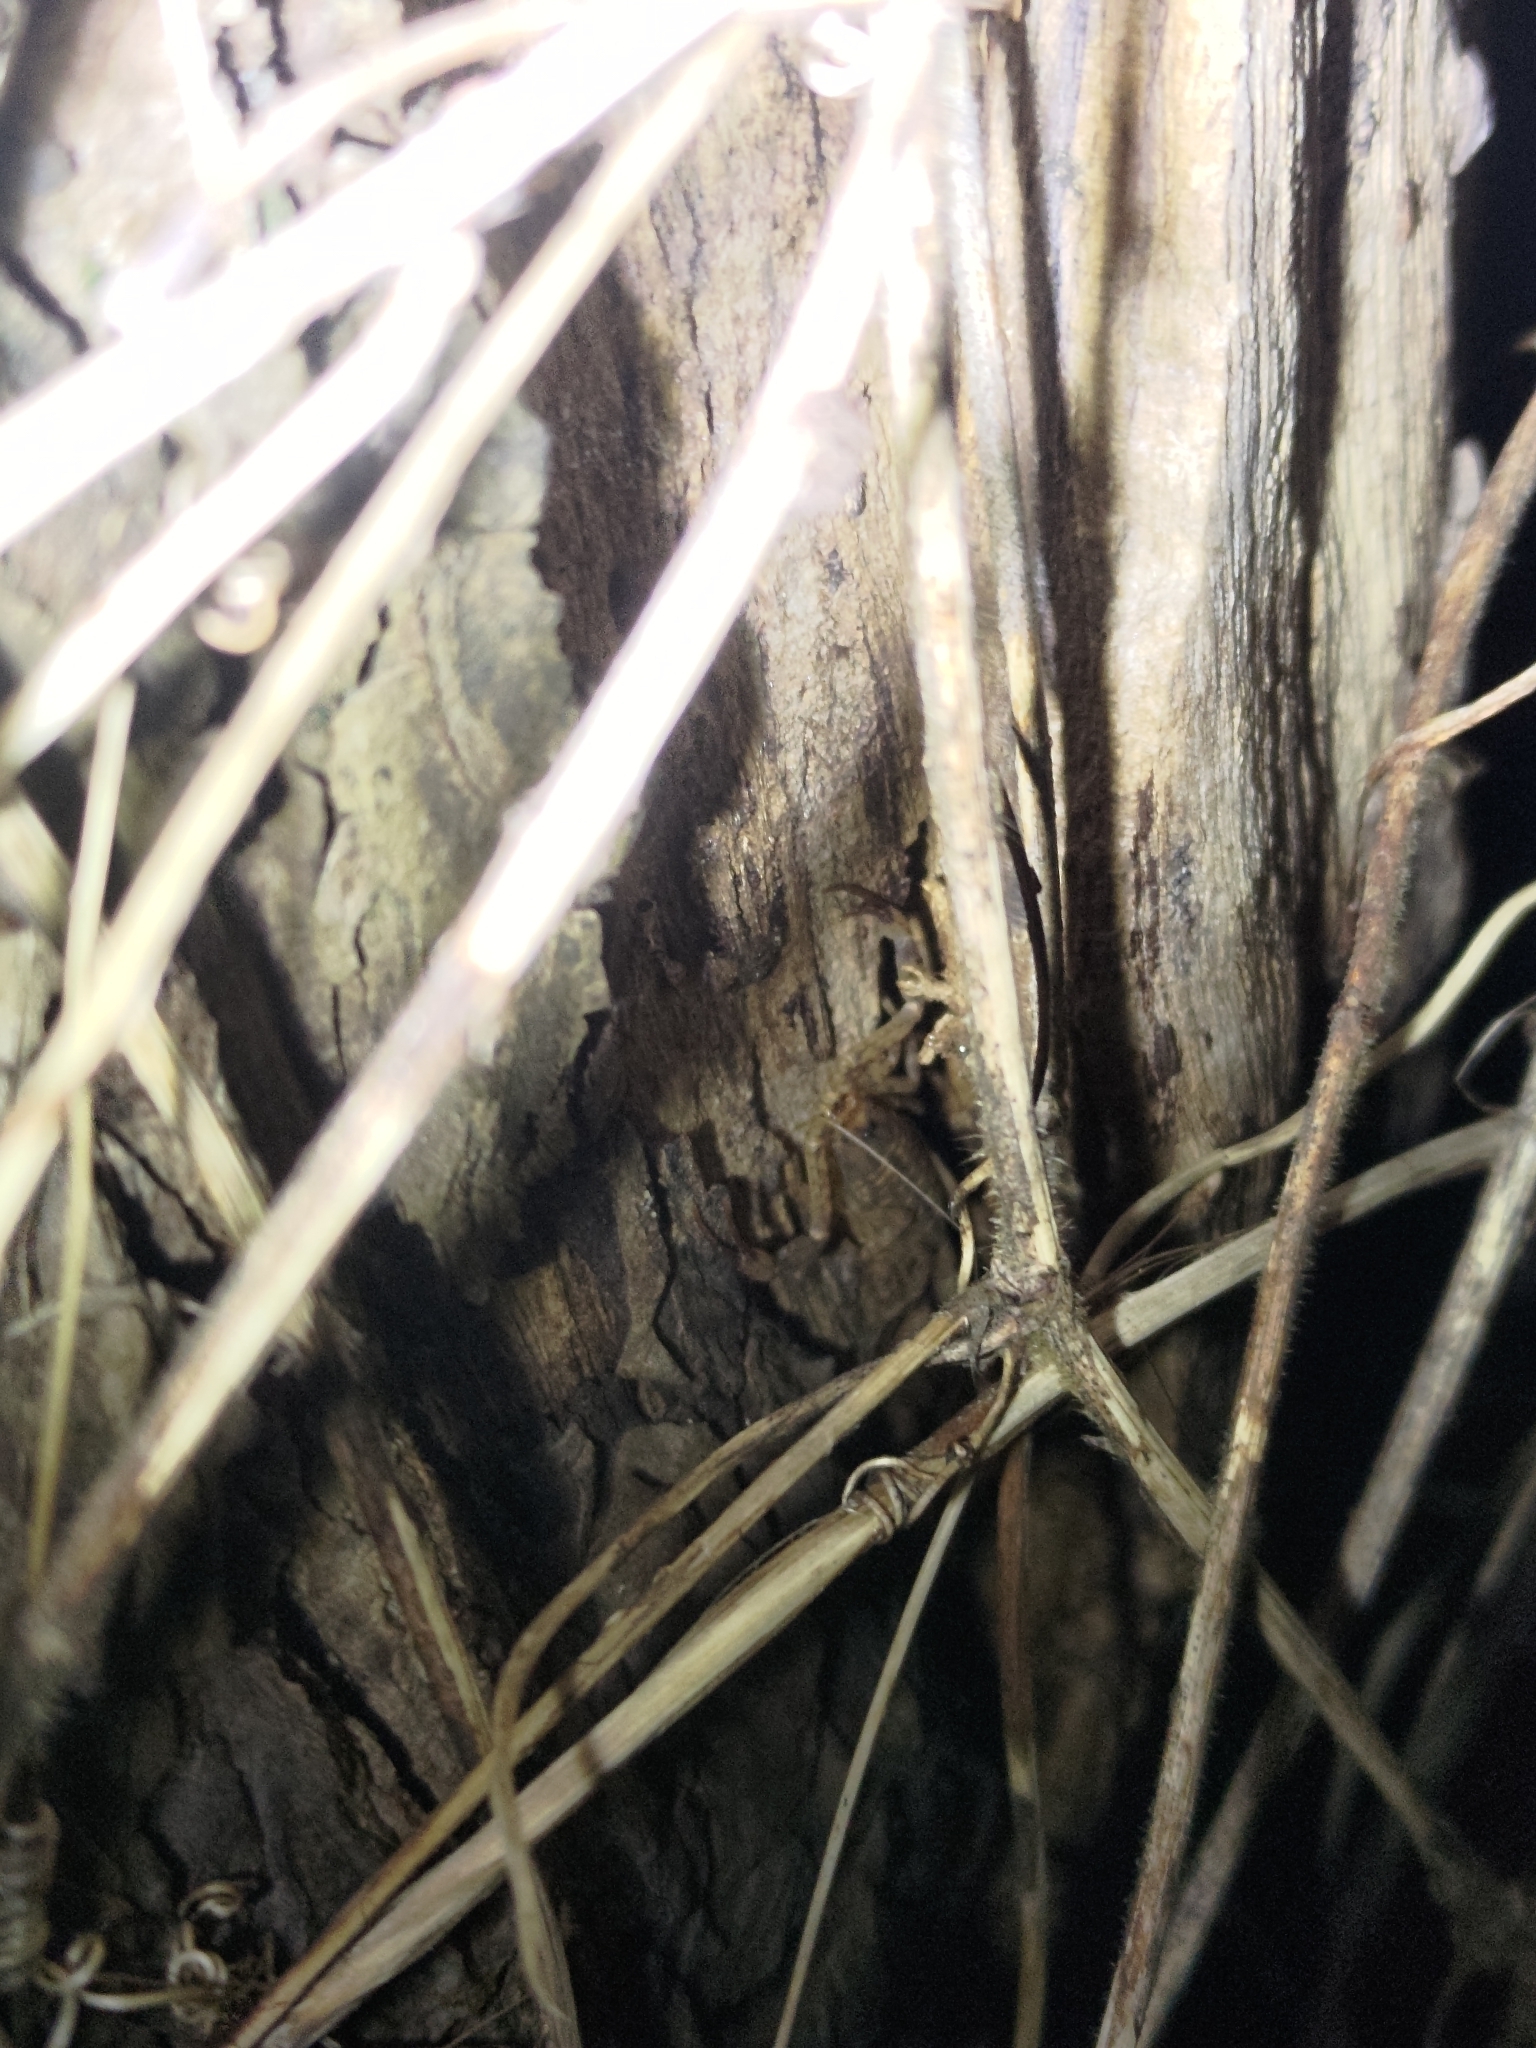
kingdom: Animalia
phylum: Arthropoda
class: Arachnida
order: Scorpiones
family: Buthidae
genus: Isometrus
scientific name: Isometrus maculatus
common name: Scorpions
